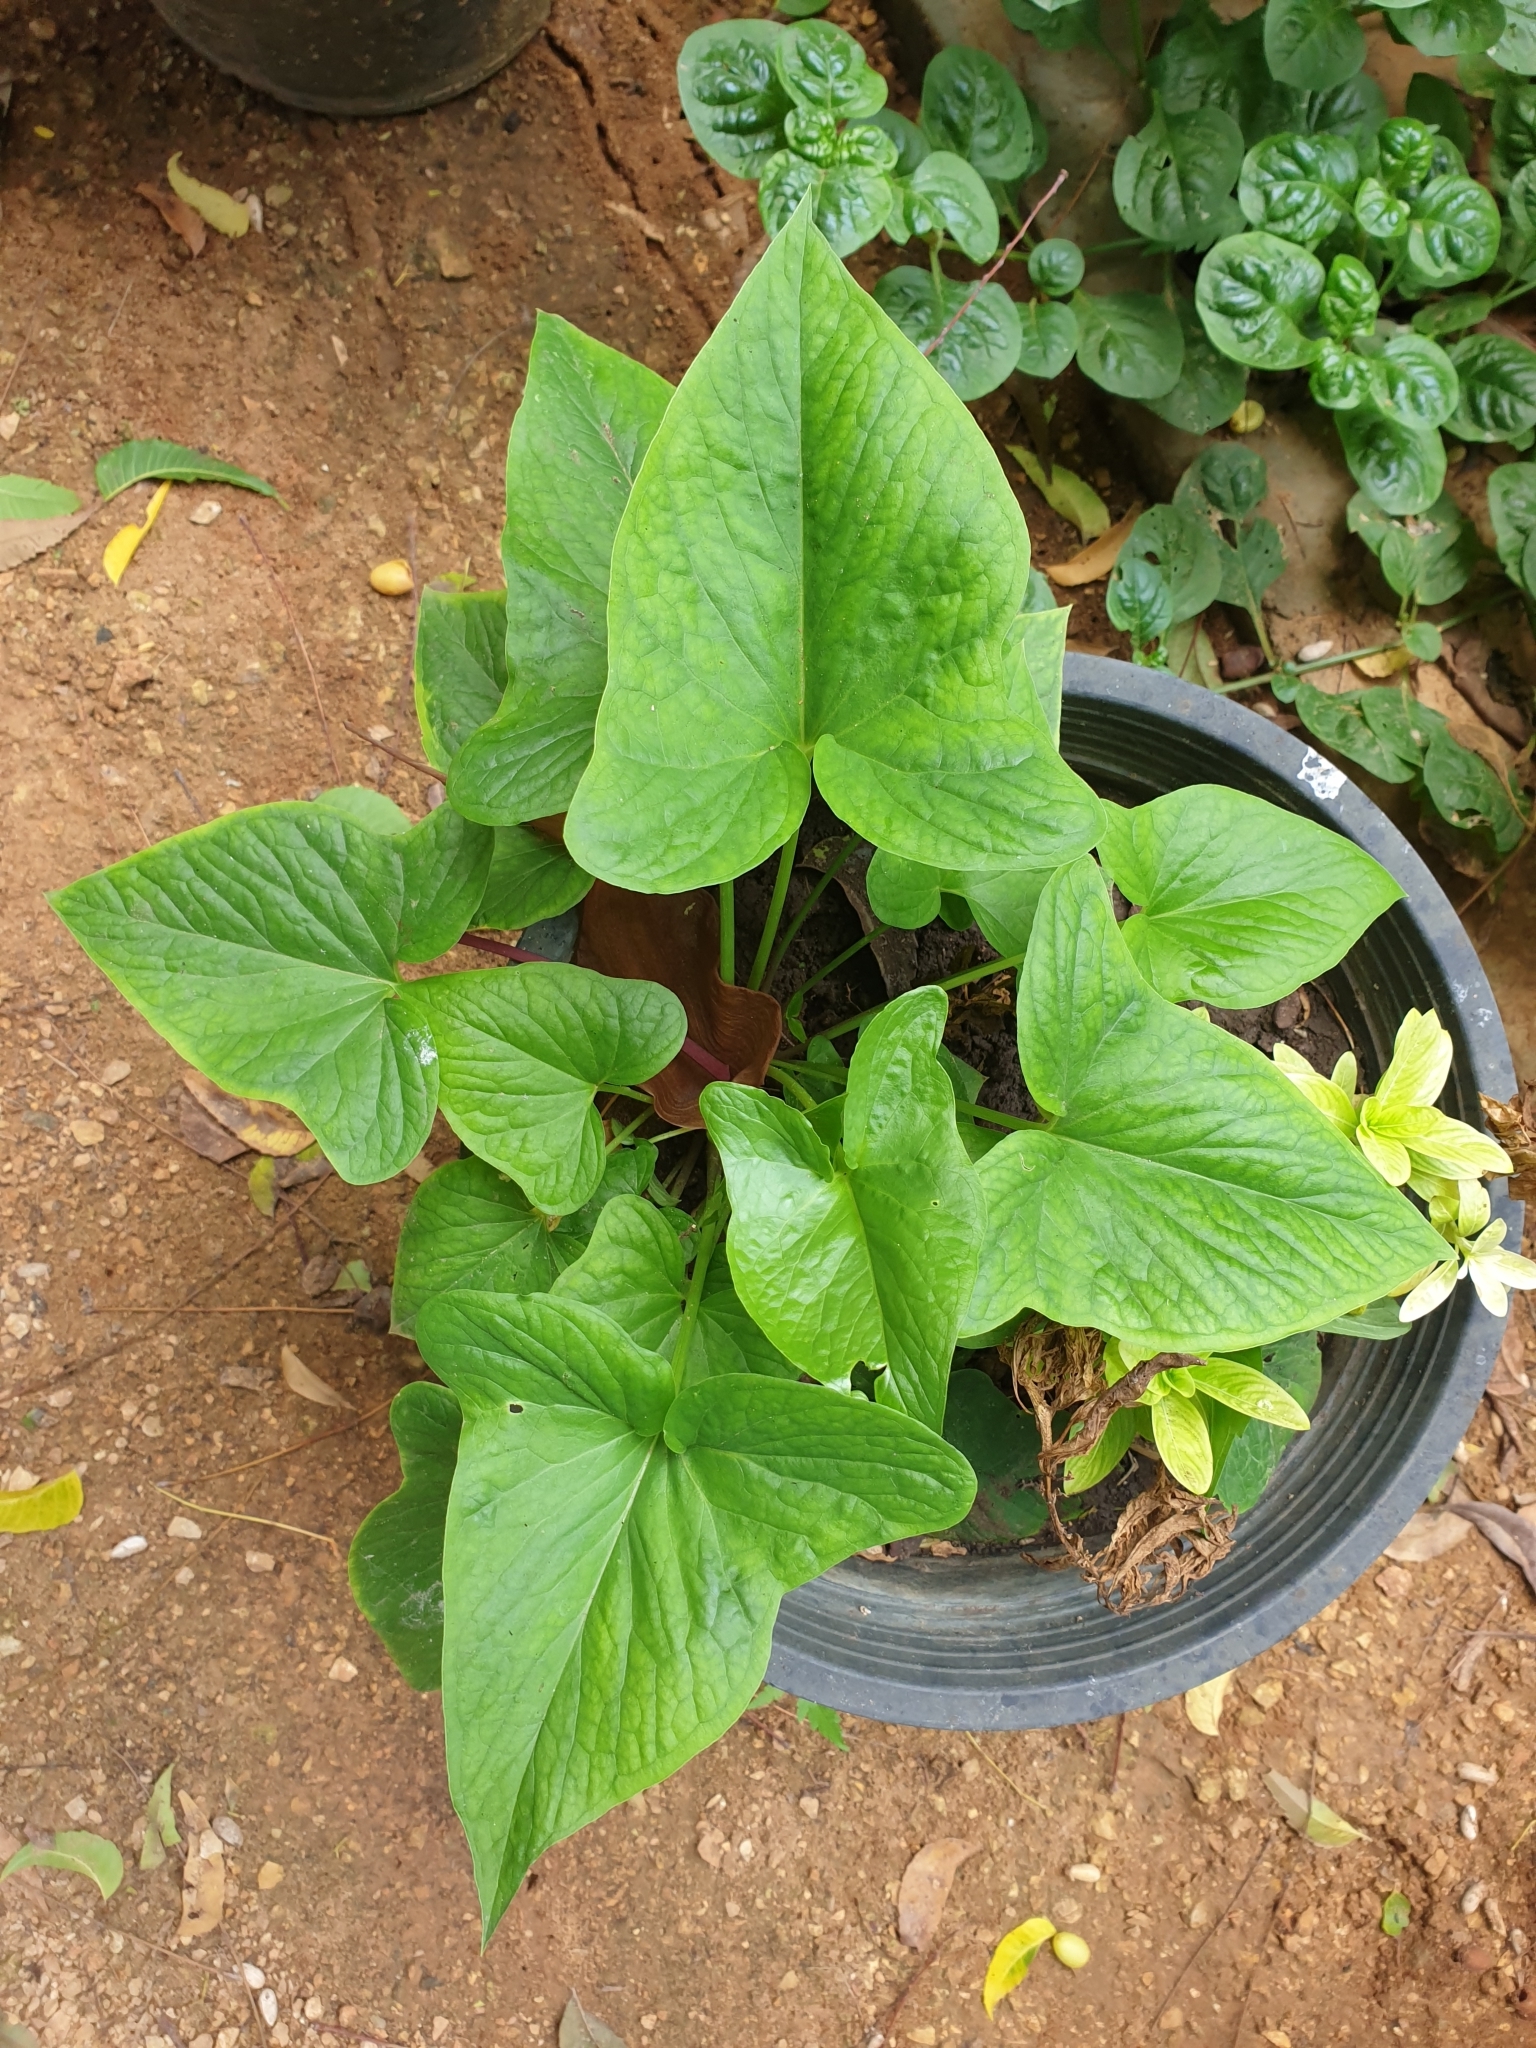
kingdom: Plantae
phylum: Tracheophyta
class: Liliopsida
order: Alismatales
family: Araceae
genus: Typhonium
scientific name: Typhonium roxburghii
